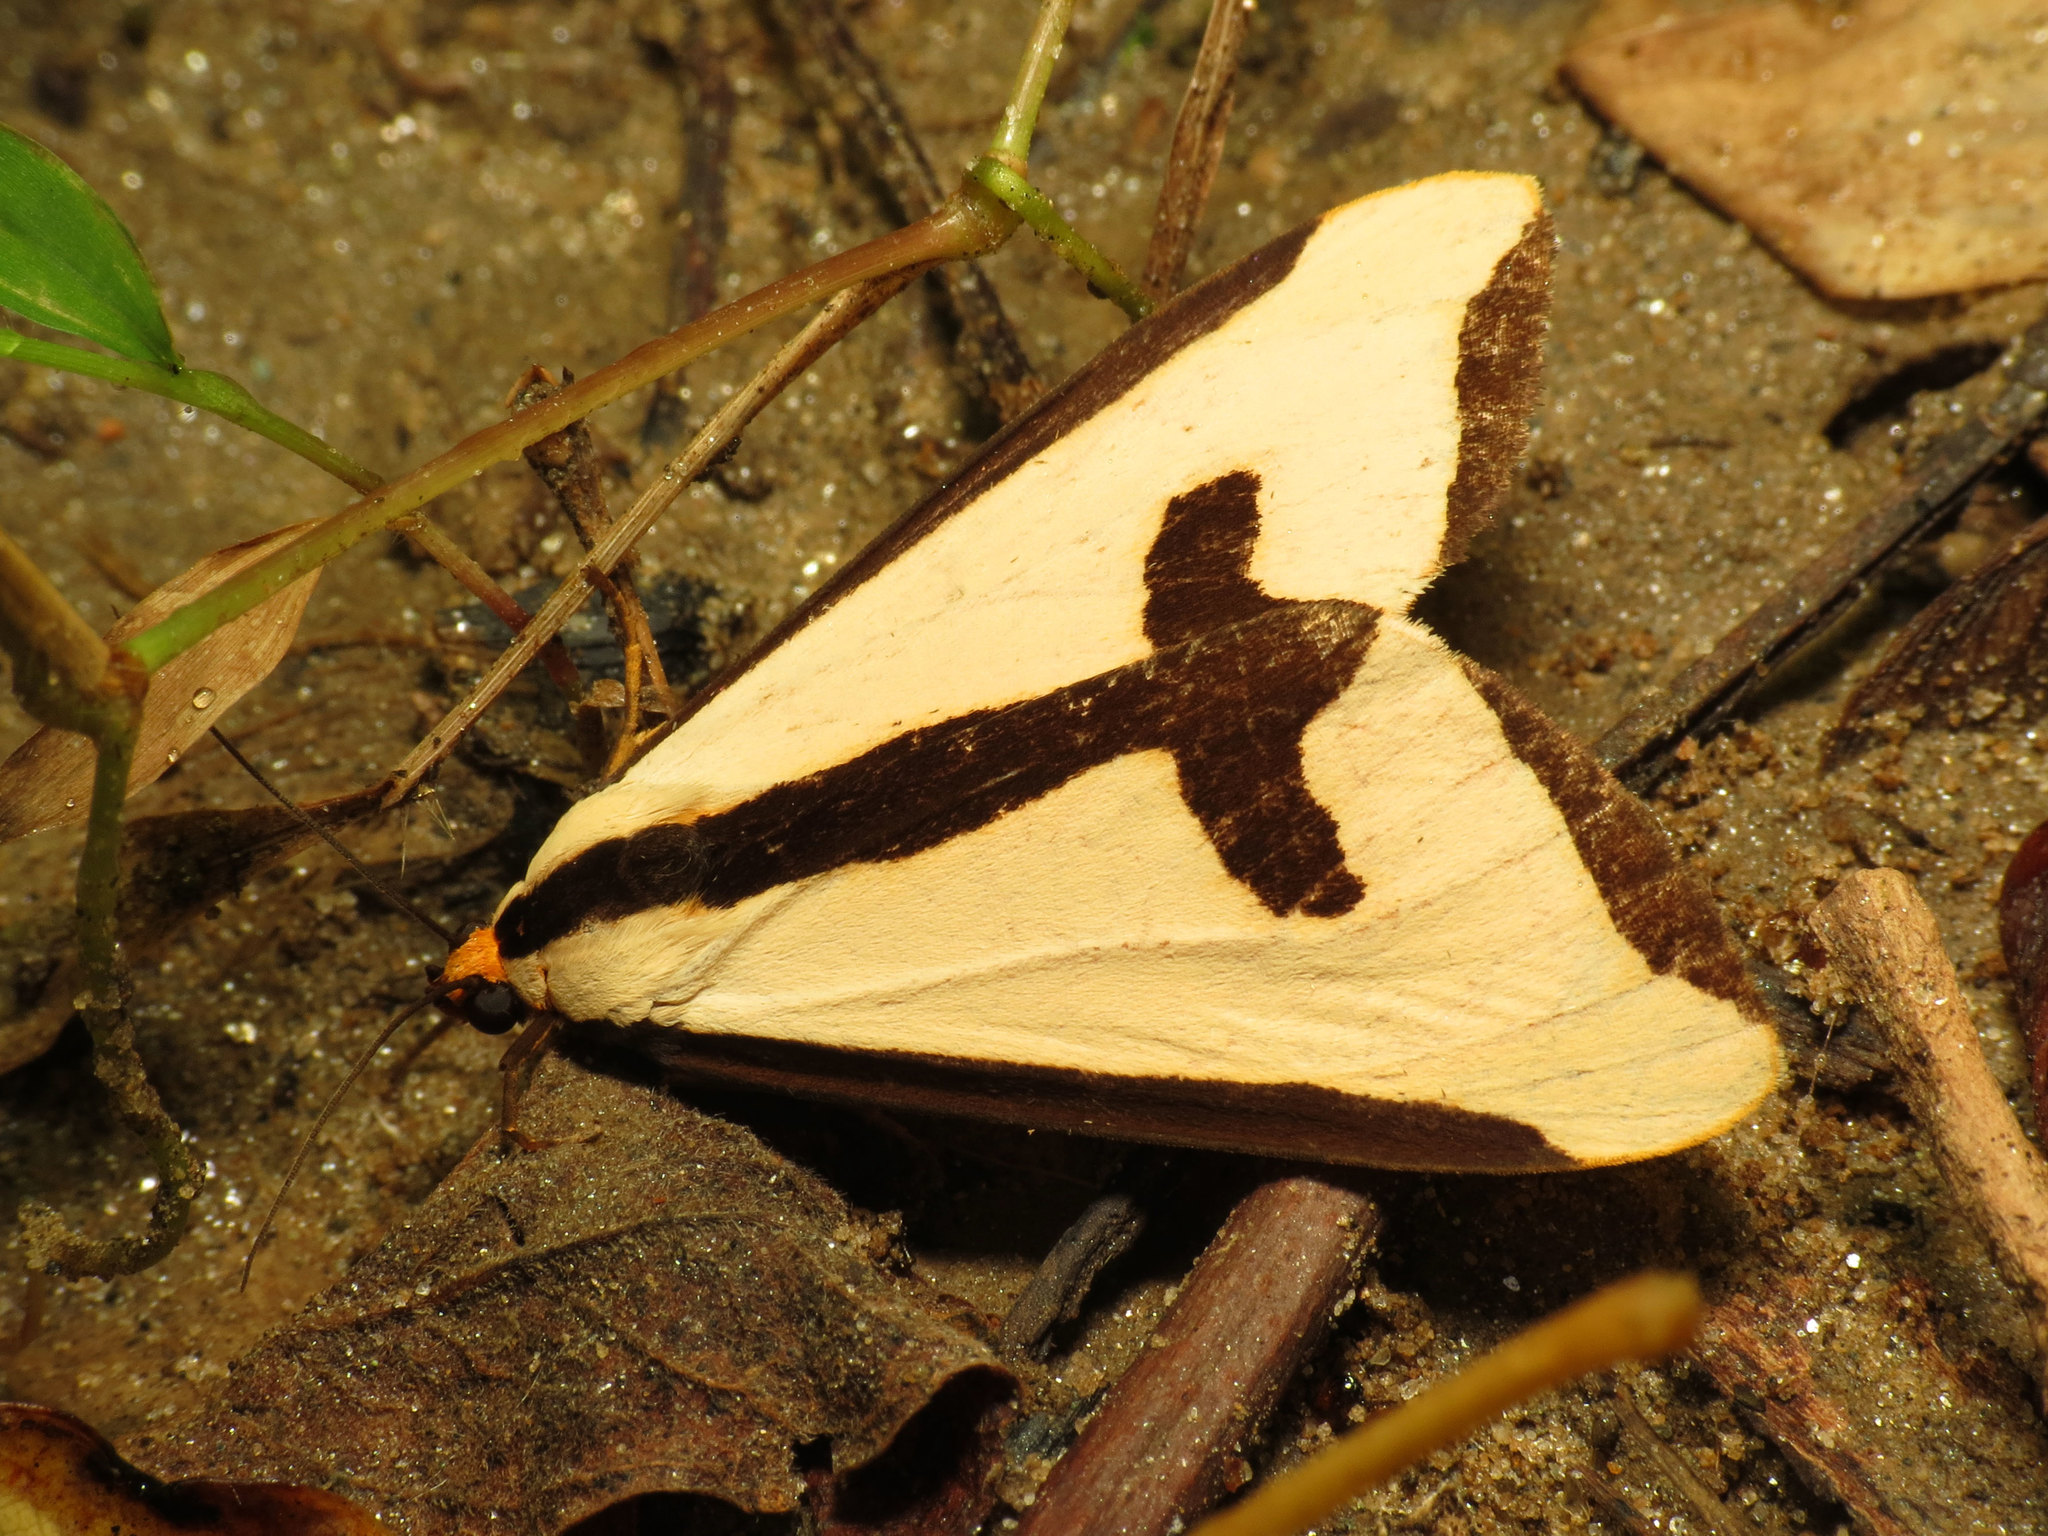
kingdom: Animalia
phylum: Arthropoda
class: Insecta
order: Lepidoptera
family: Erebidae
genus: Haploa
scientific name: Haploa clymene
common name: Clymene moth
